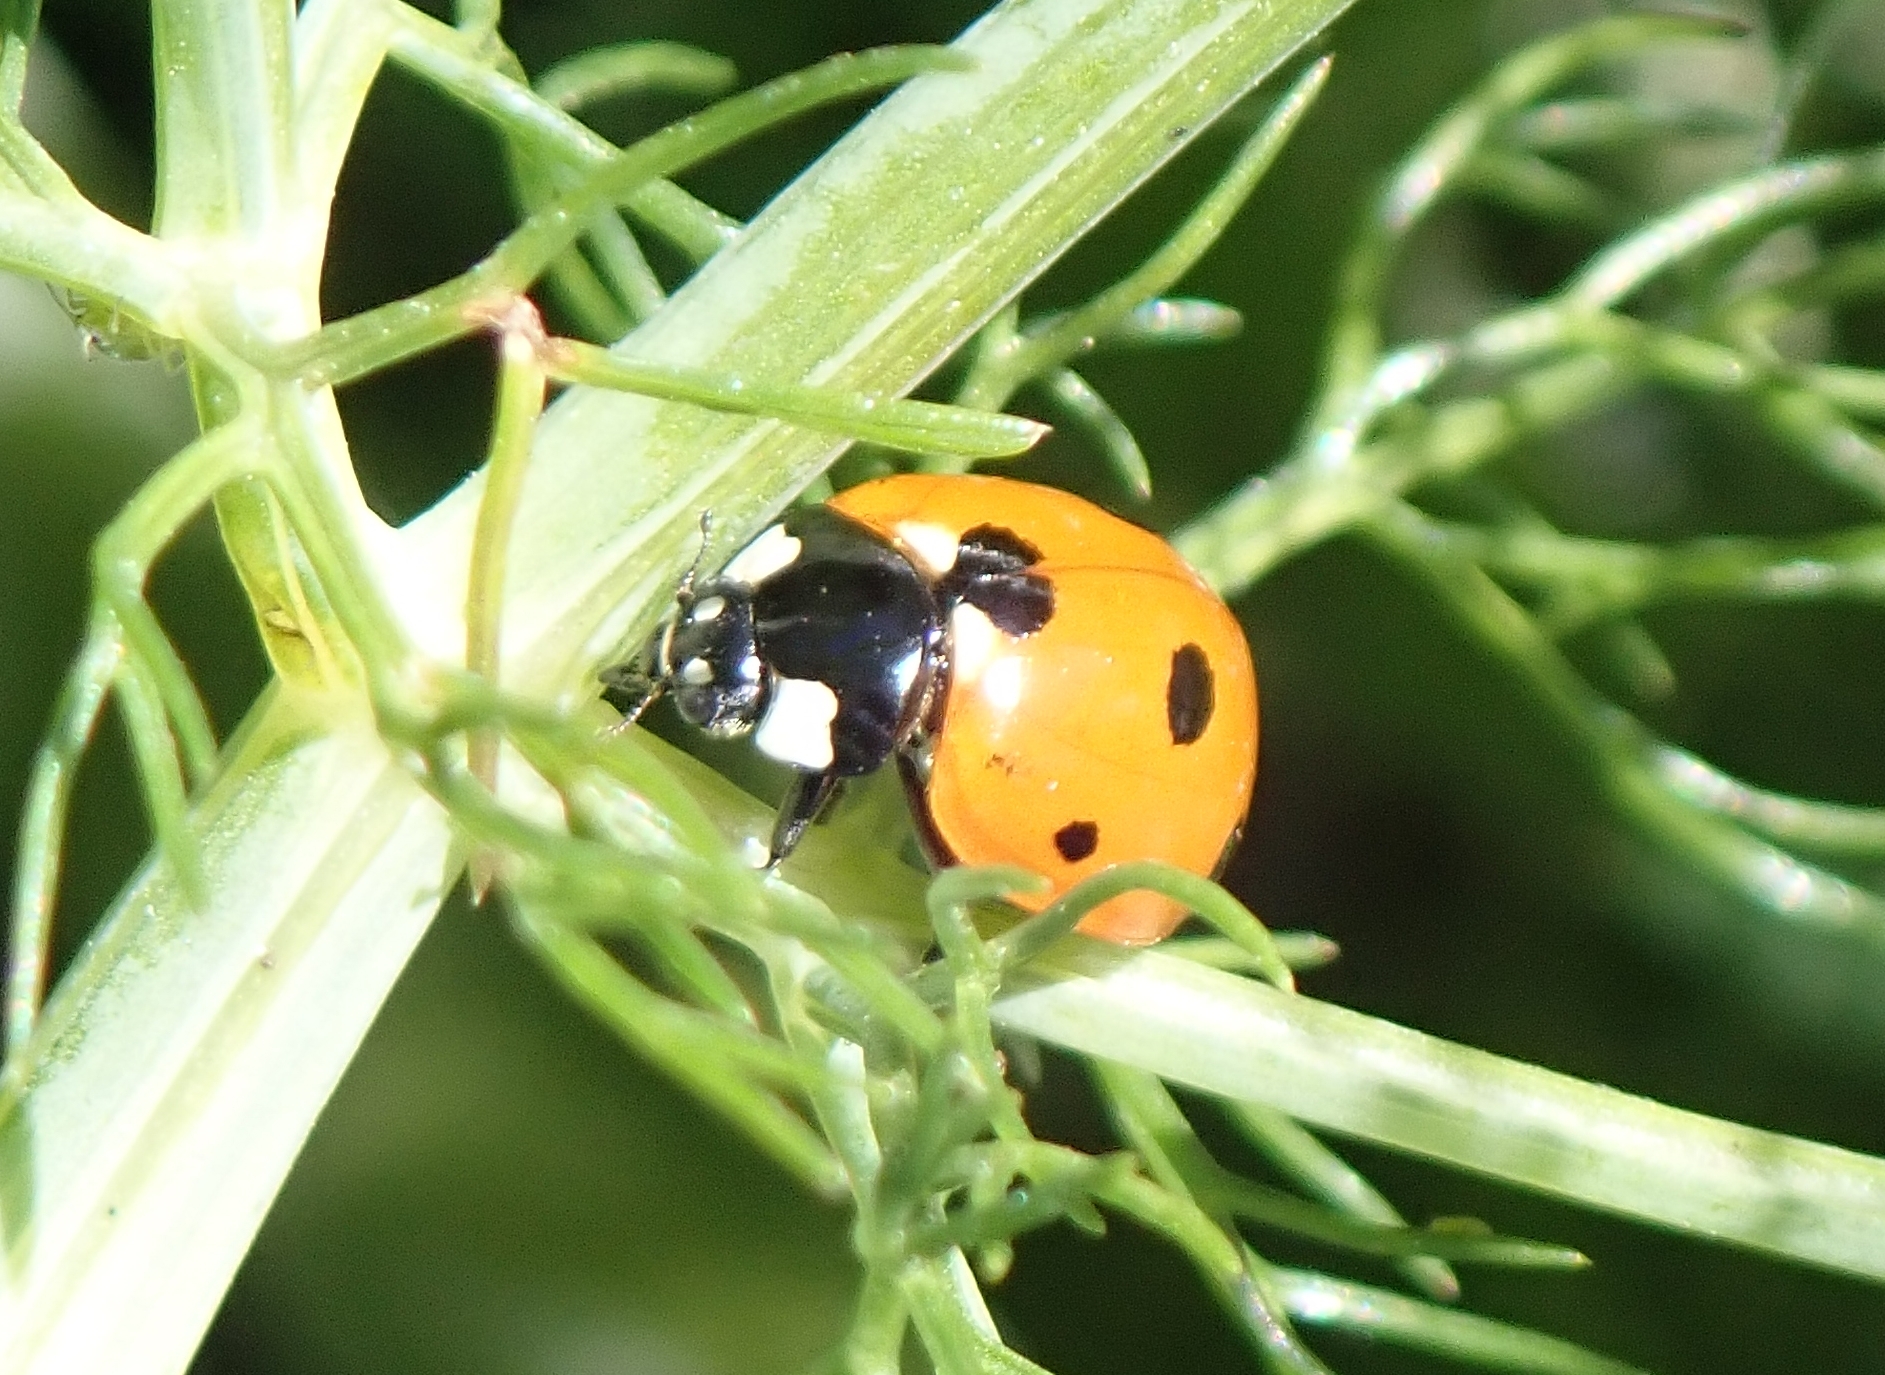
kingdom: Animalia
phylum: Arthropoda
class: Insecta
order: Coleoptera
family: Coccinellidae
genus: Coccinella
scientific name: Coccinella septempunctata
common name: Sevenspotted lady beetle
